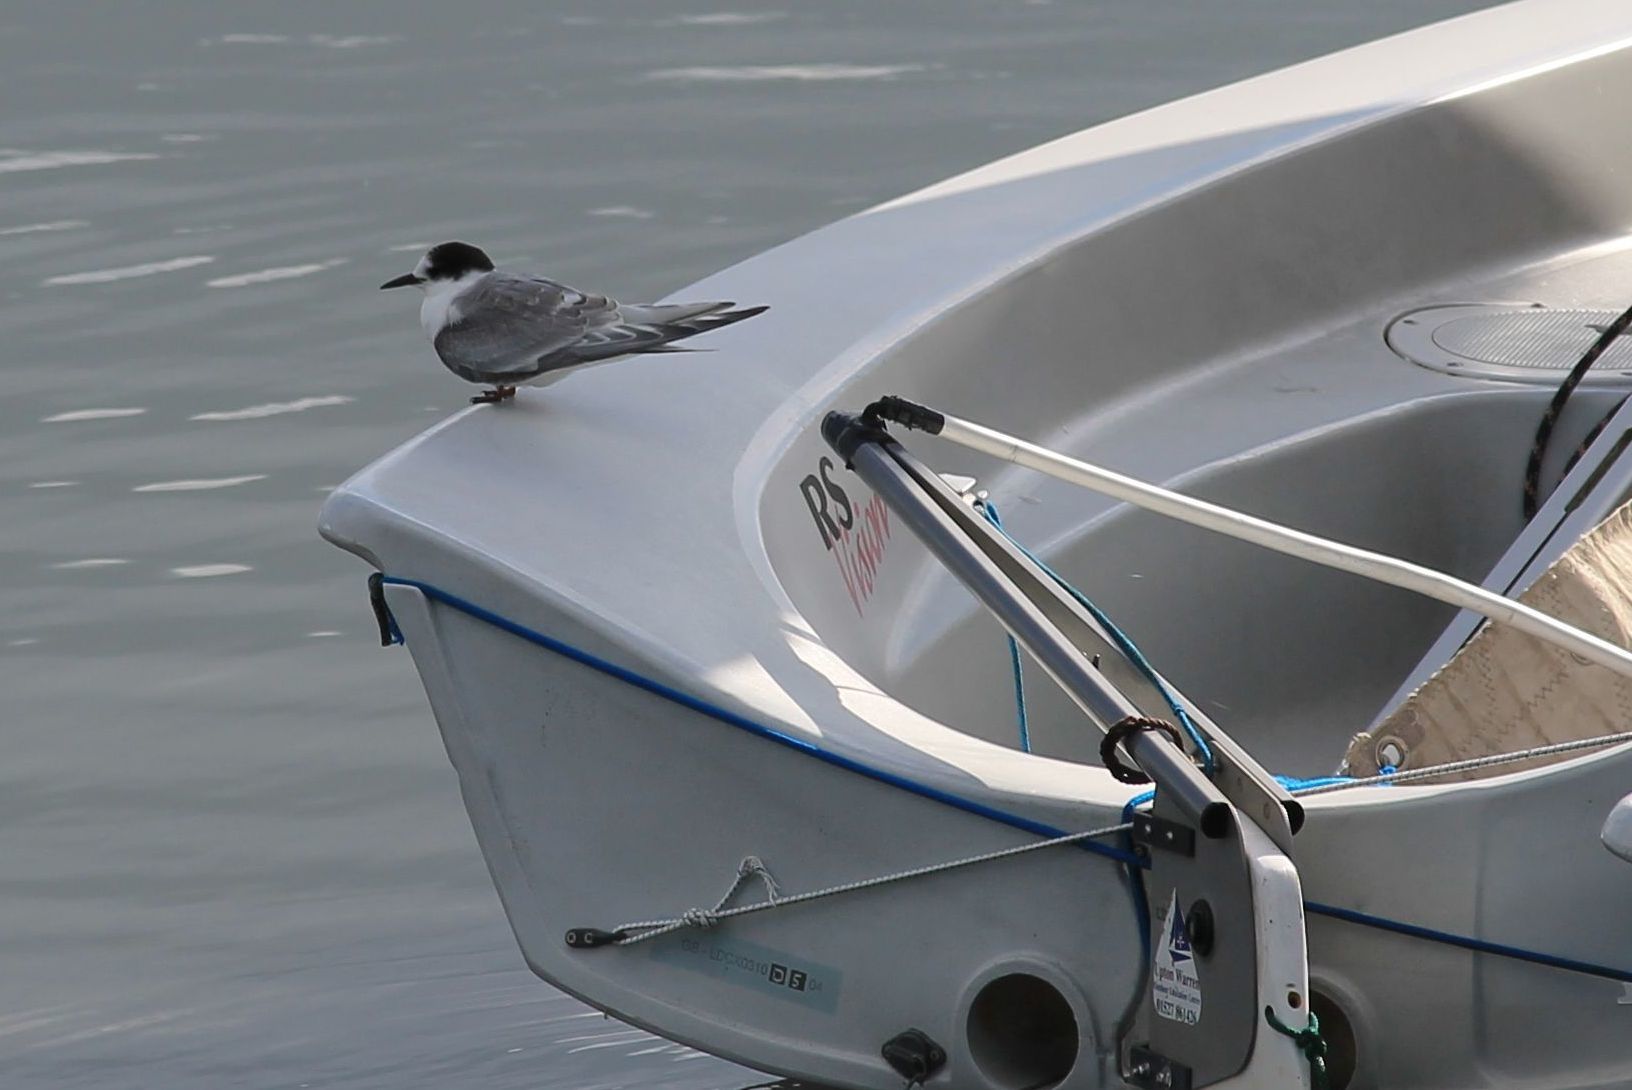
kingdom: Animalia
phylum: Chordata
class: Aves
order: Charadriiformes
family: Laridae
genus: Sterna
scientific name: Sterna paradisaea
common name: Arctic tern
